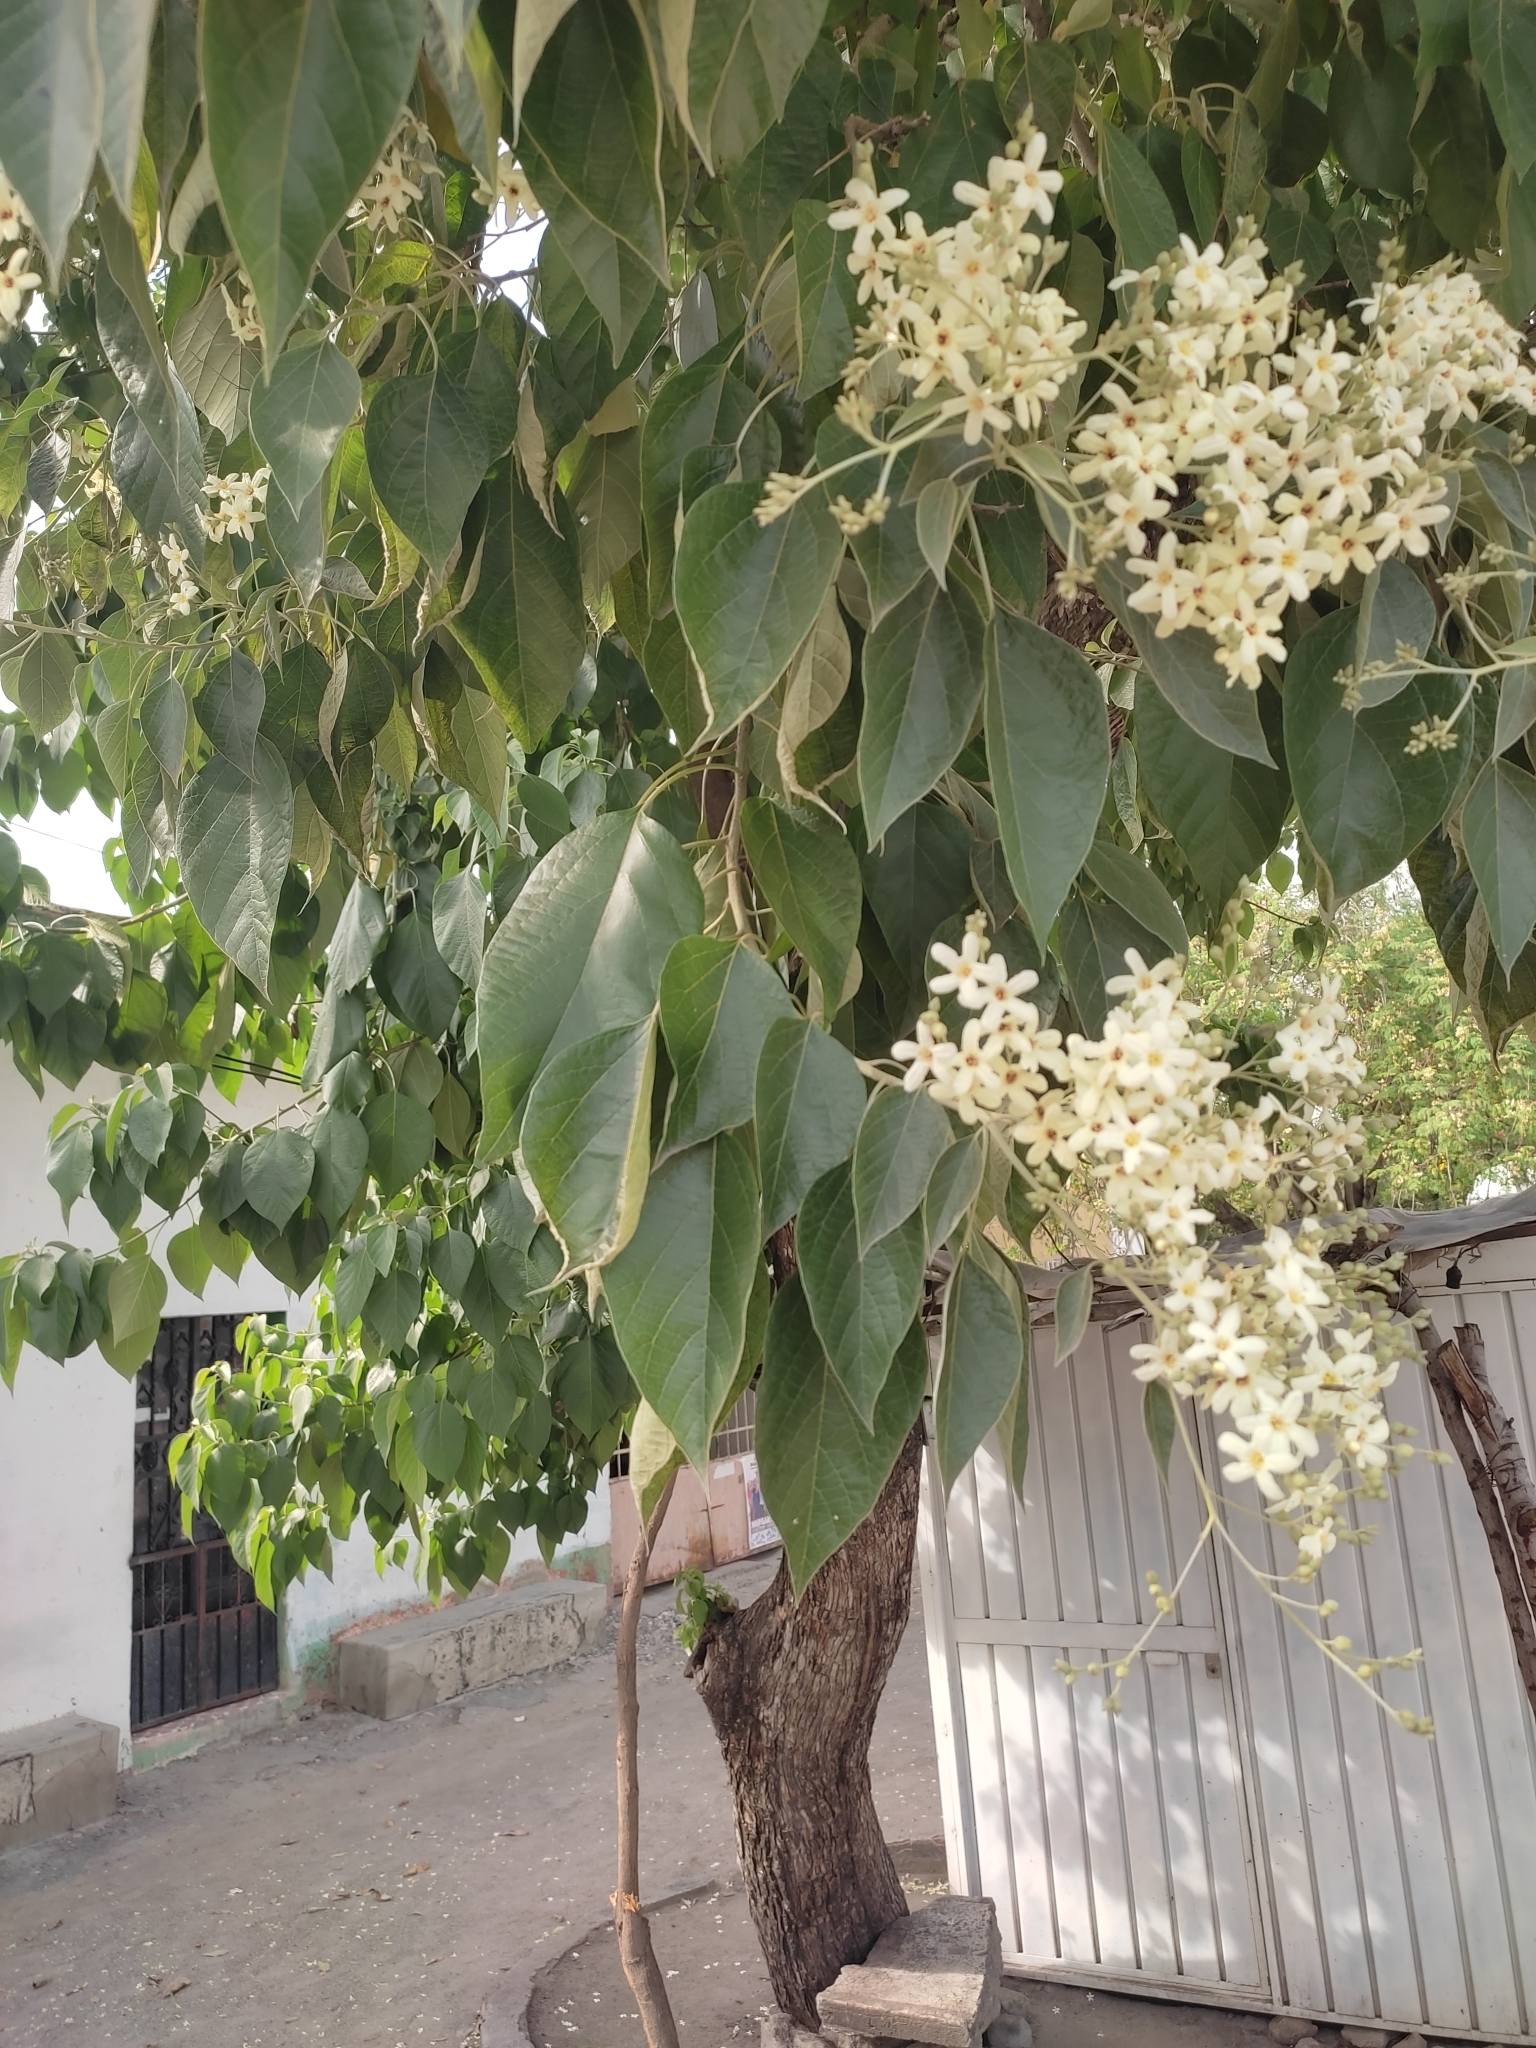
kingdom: Plantae
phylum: Tracheophyta
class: Magnoliopsida
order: Boraginales
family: Cordiaceae
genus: Cordia
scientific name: Cordia elaeagnoides
